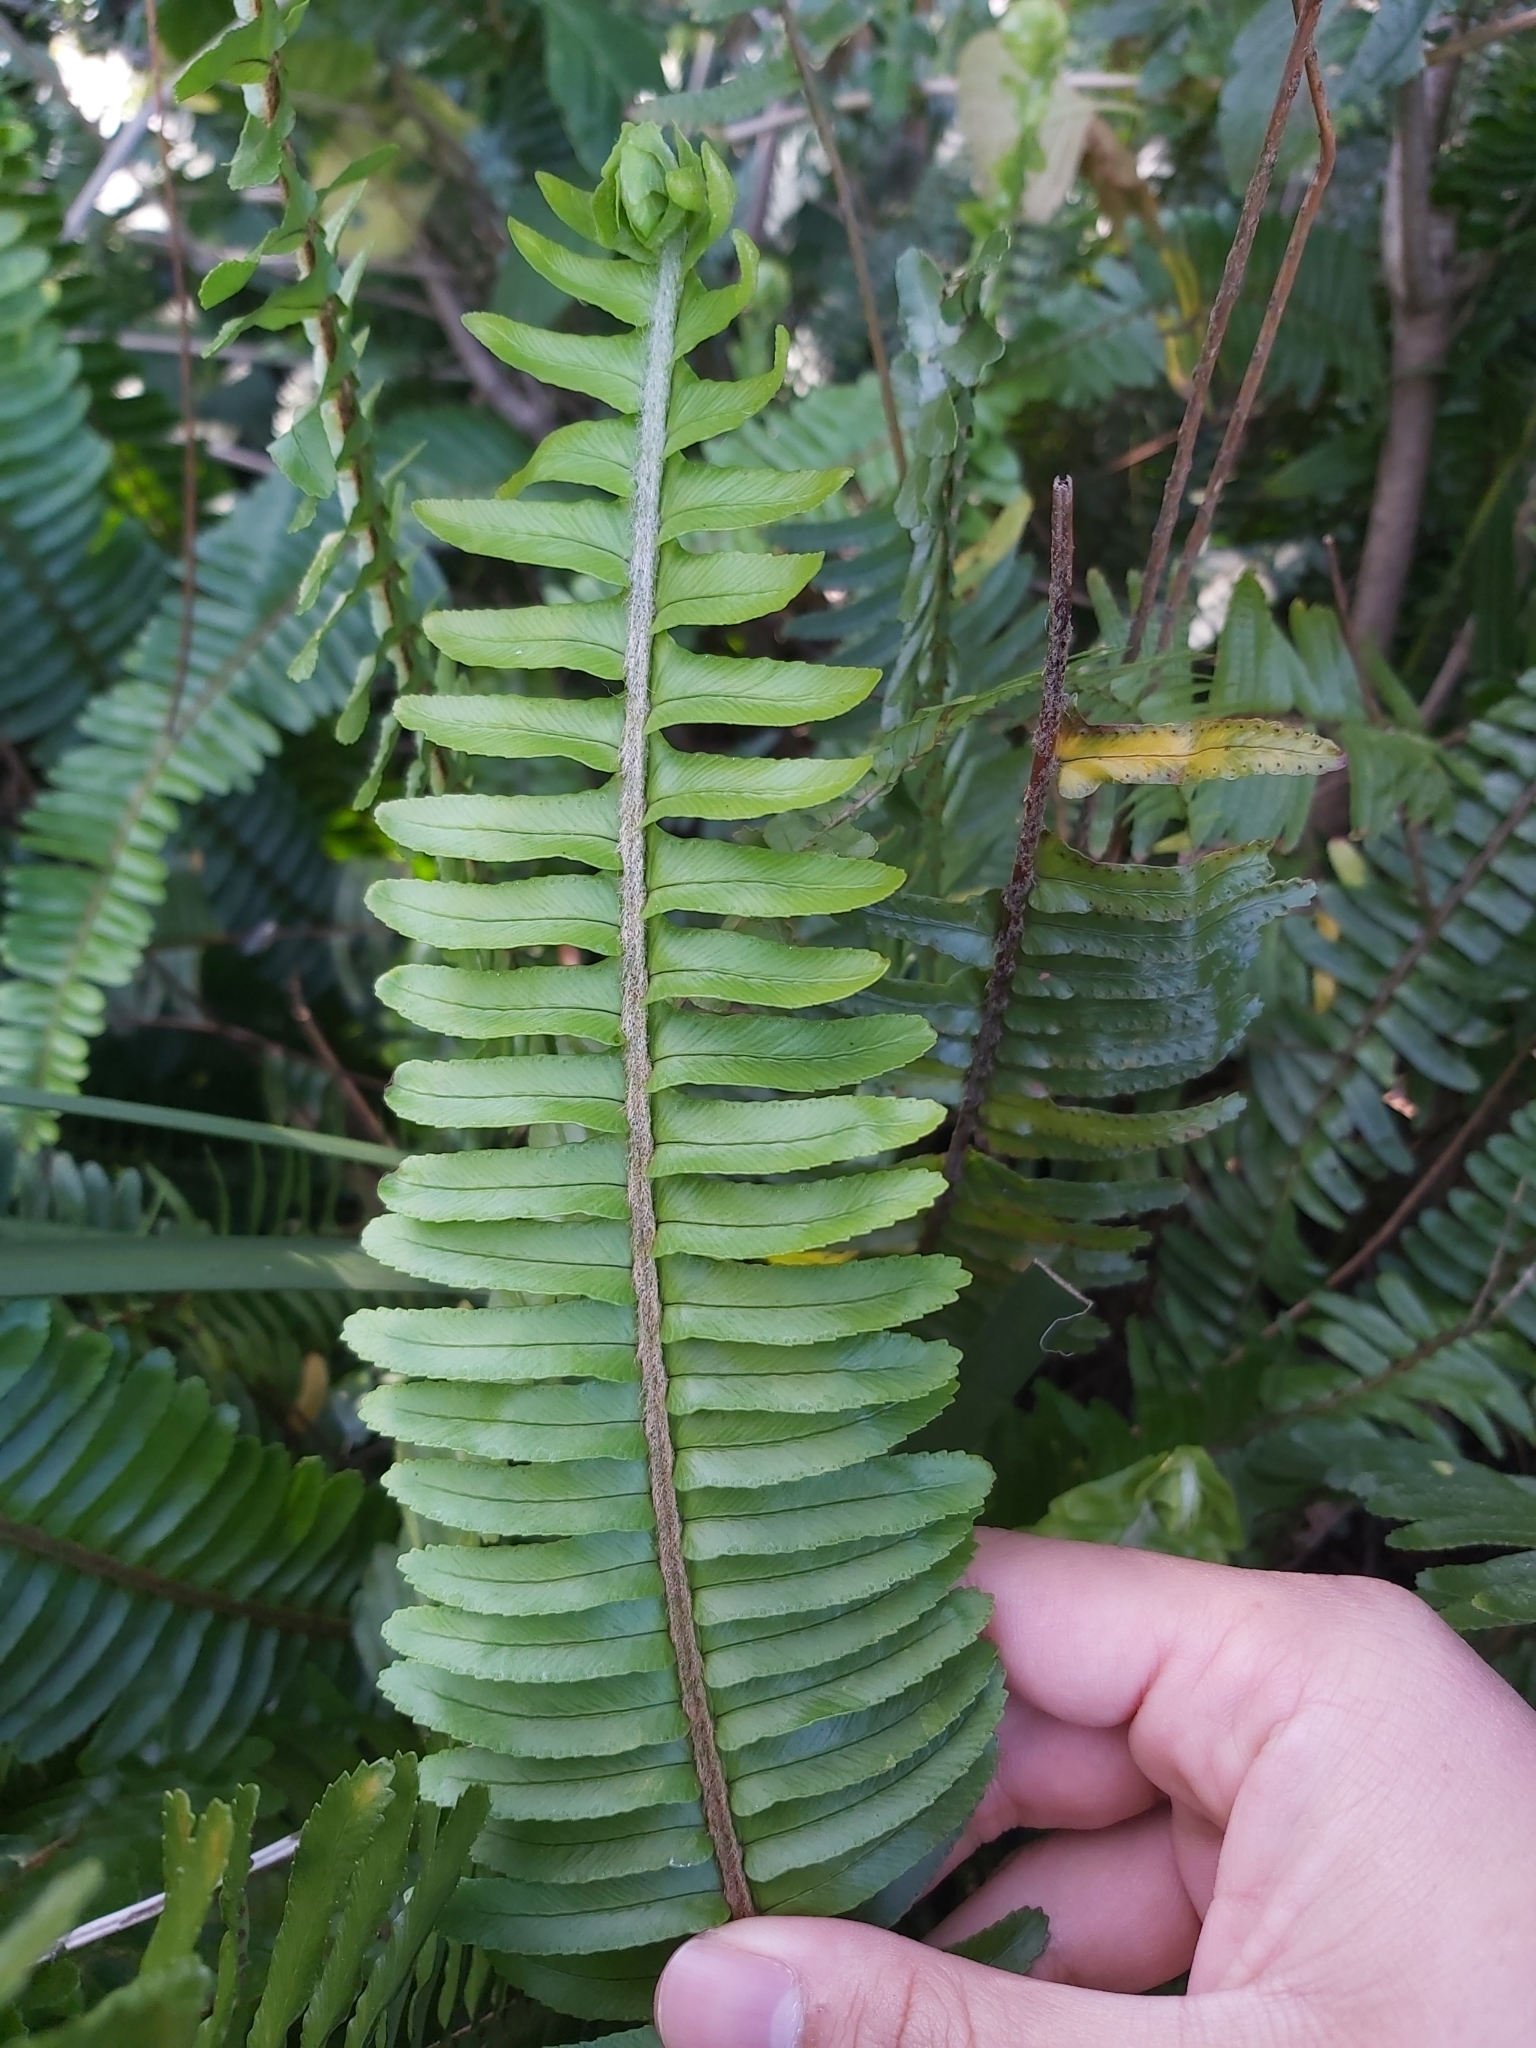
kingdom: Plantae
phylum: Tracheophyta
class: Polypodiopsida
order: Polypodiales
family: Nephrolepidaceae
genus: Nephrolepis
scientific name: Nephrolepis cordifolia
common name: Narrow swordfern
